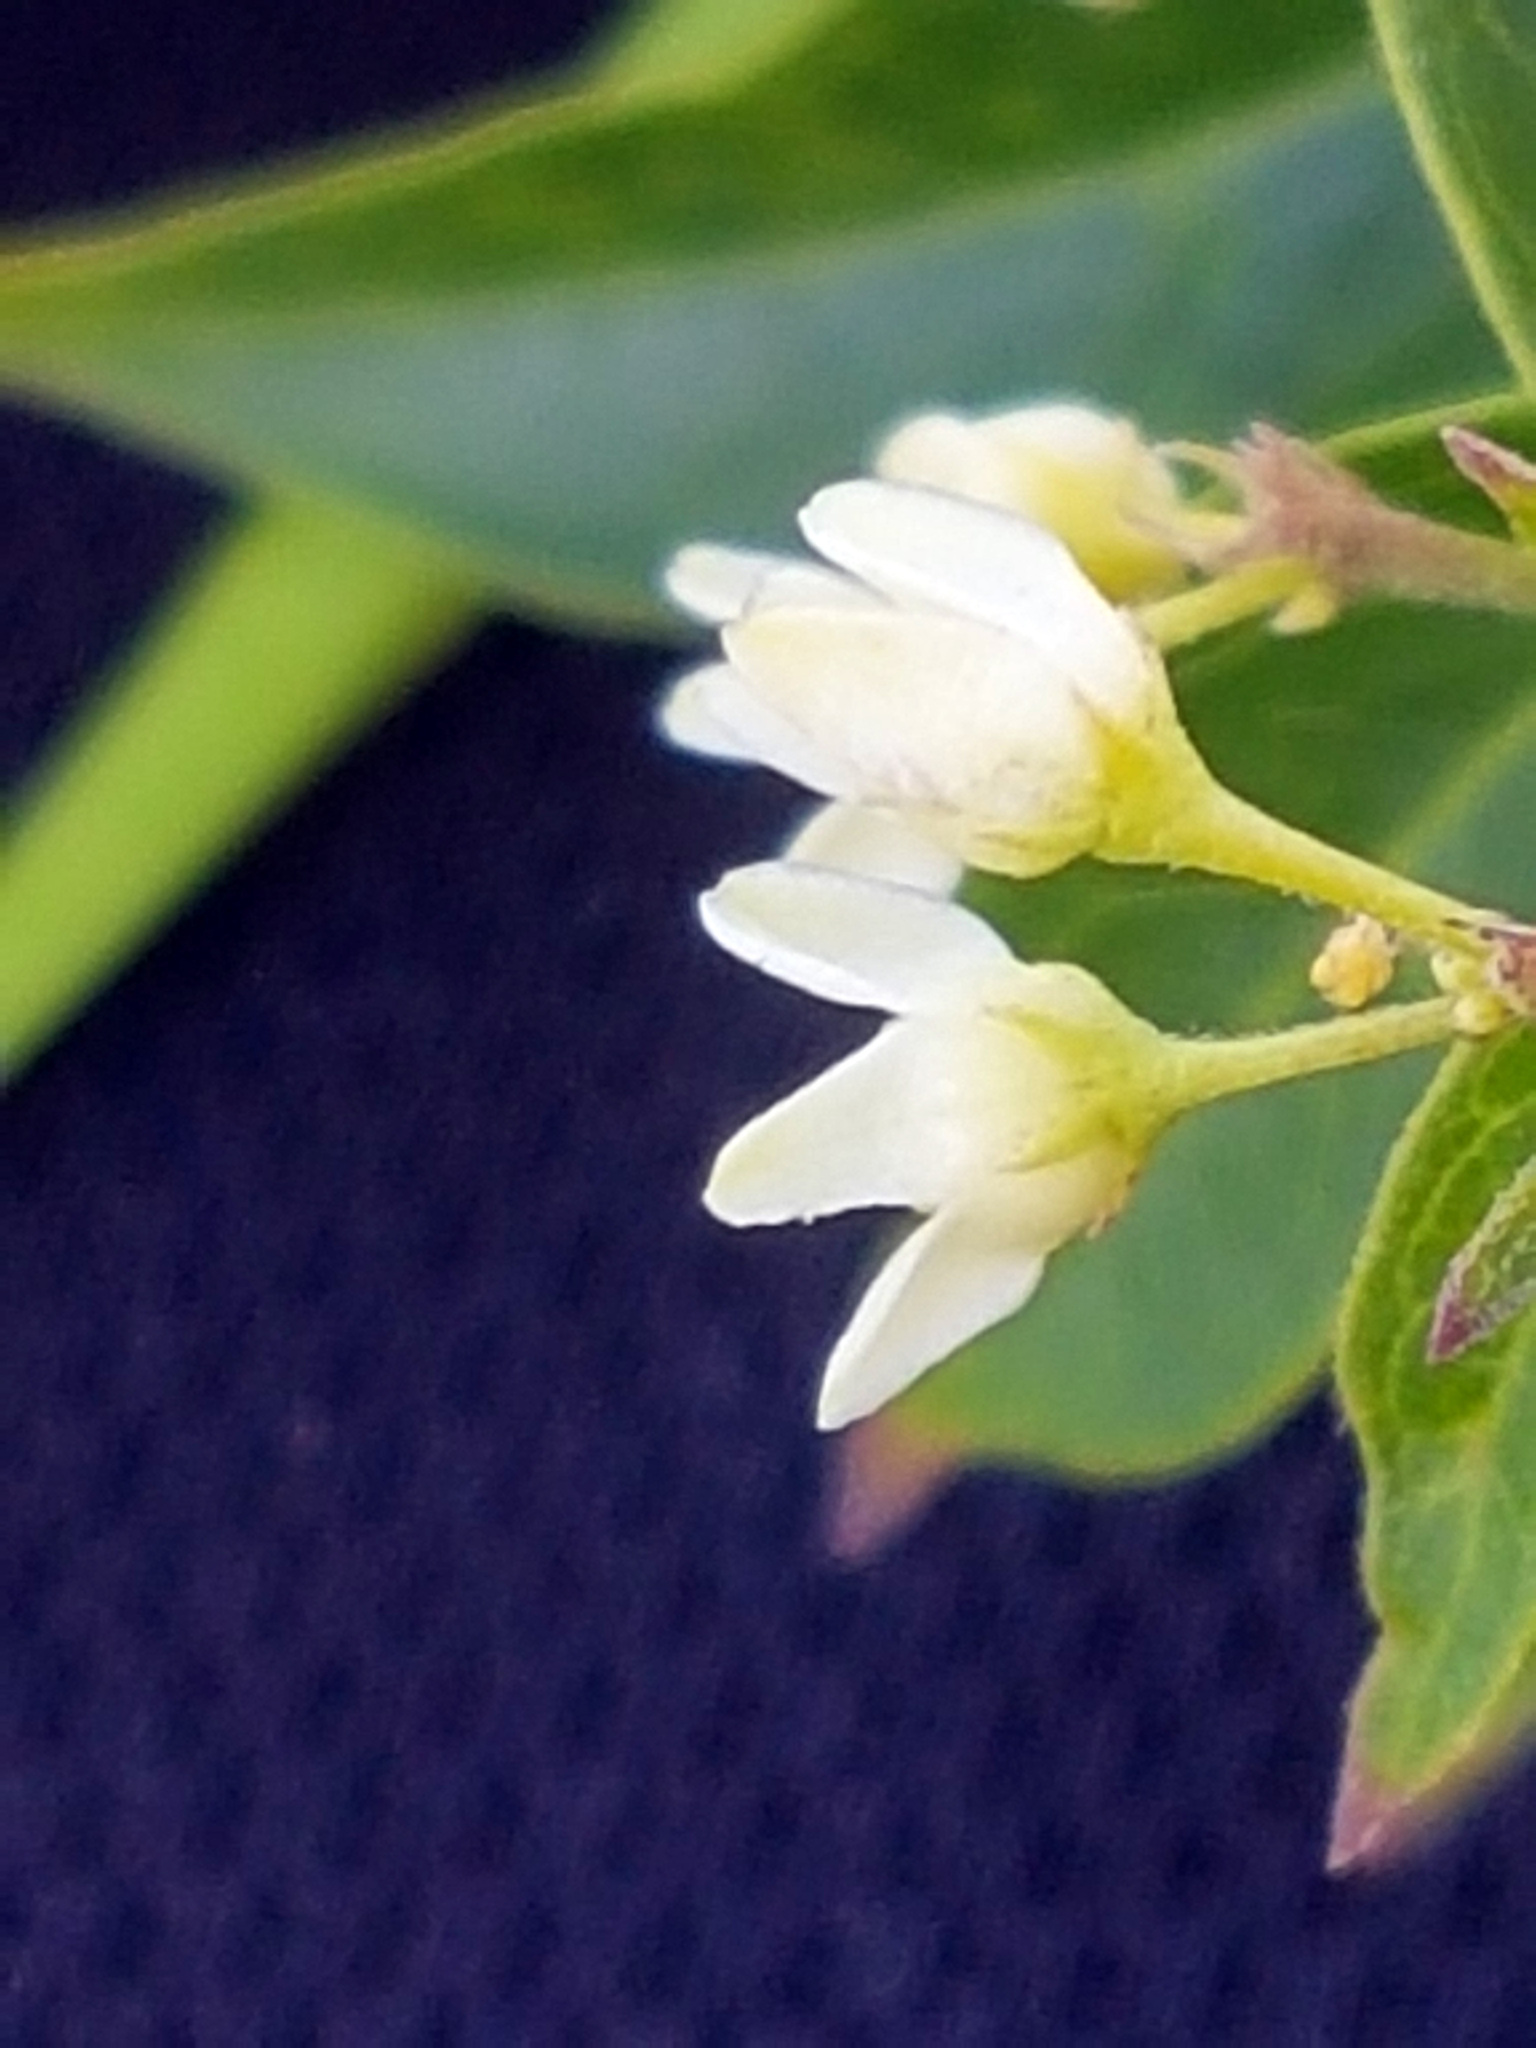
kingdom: Plantae
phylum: Tracheophyta
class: Magnoliopsida
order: Gentianales
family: Apocynaceae
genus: Vincetoxicum
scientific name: Vincetoxicum hirundinaria
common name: White swallowwort
